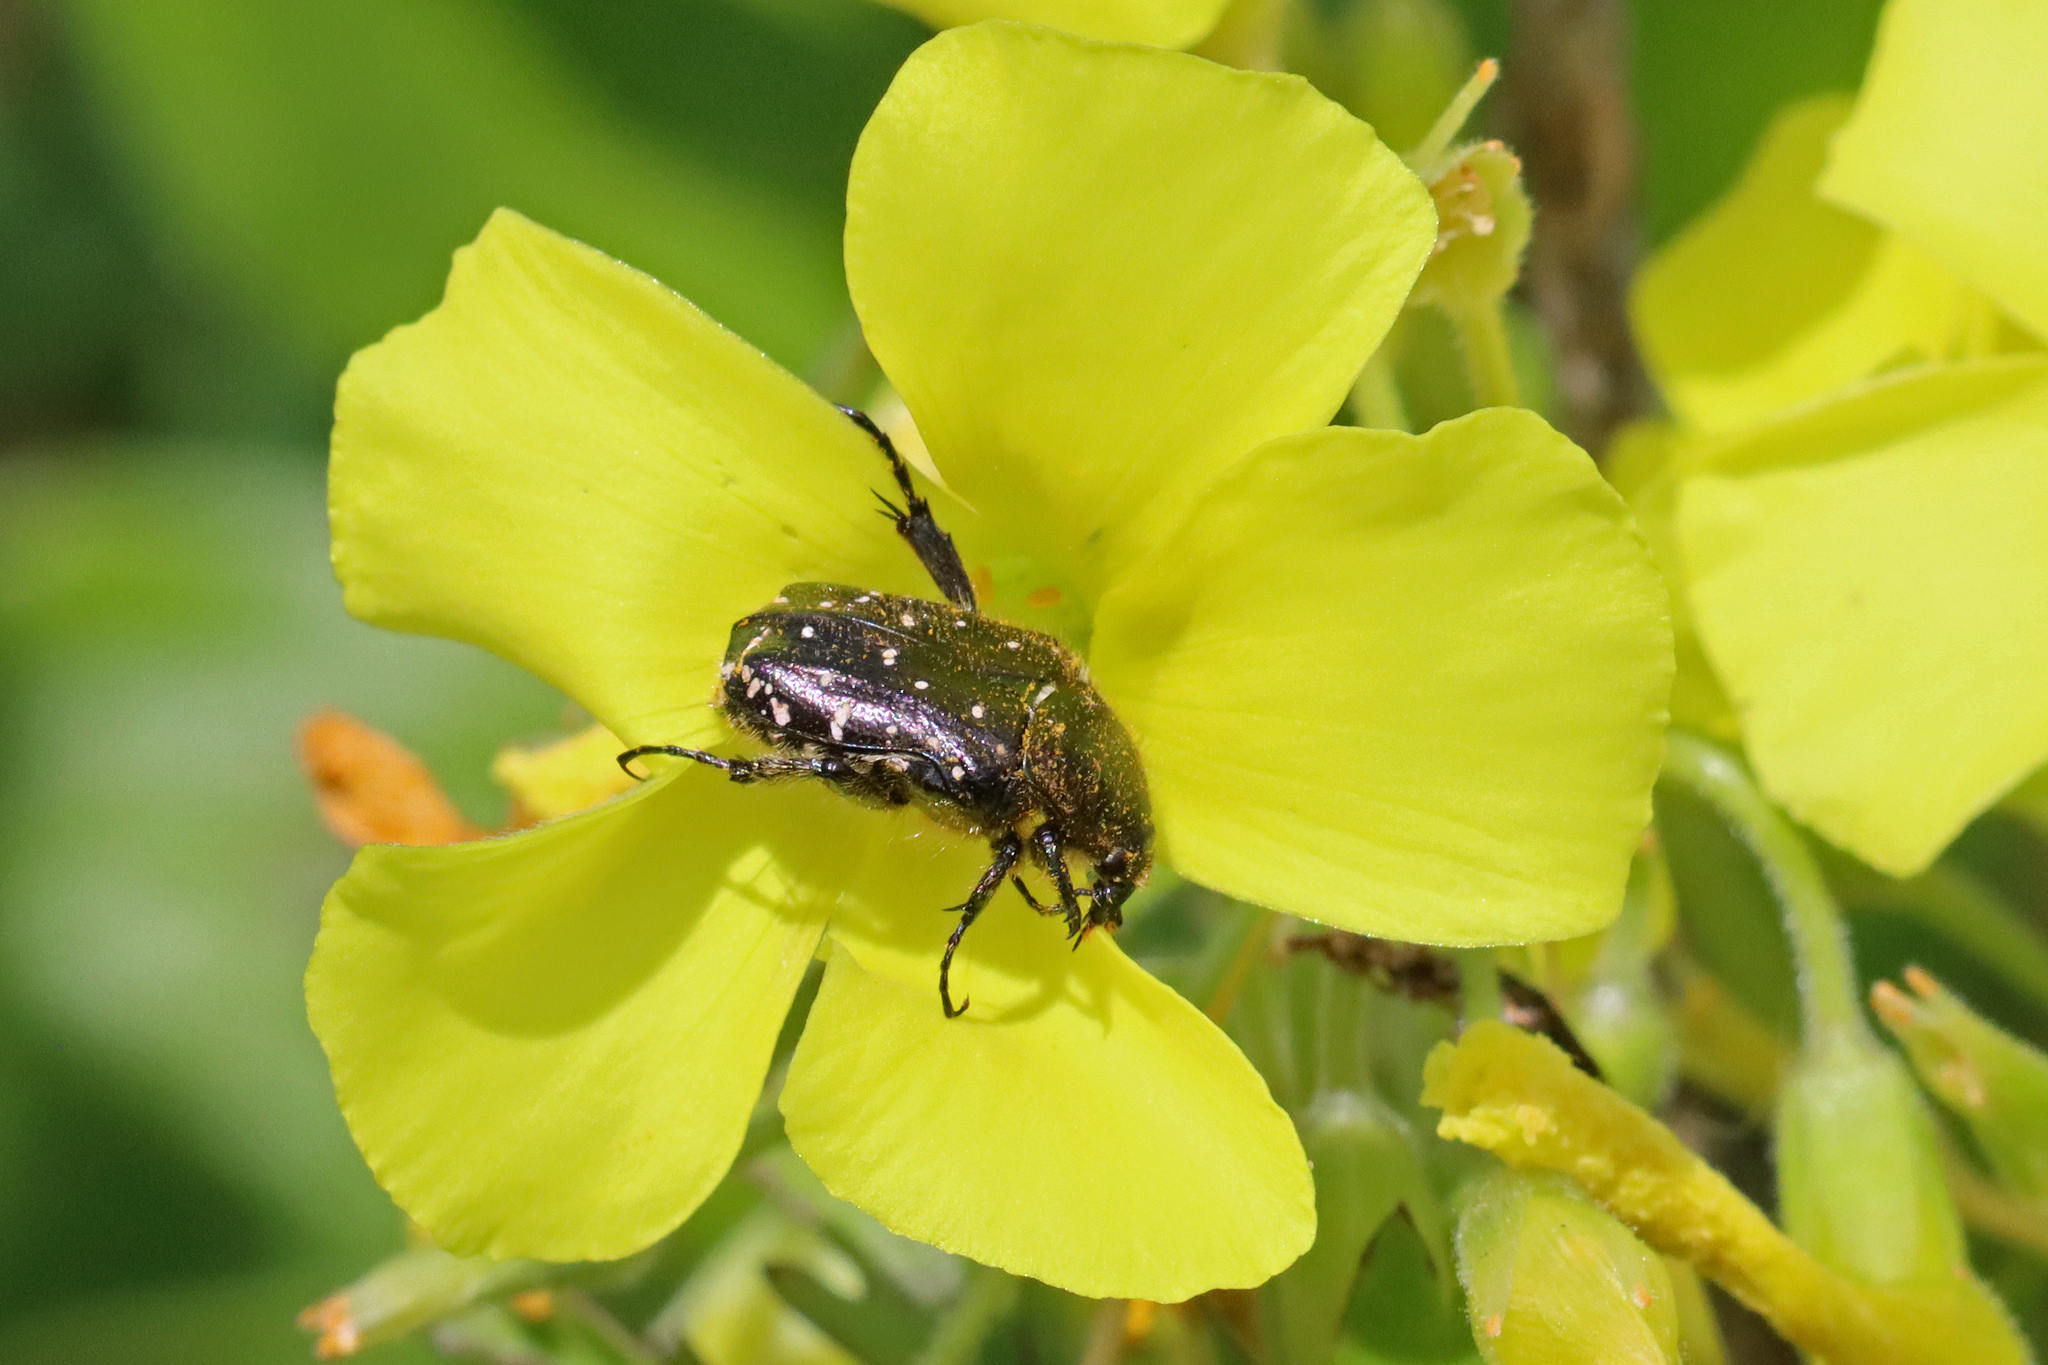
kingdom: Animalia
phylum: Arthropoda
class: Insecta
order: Coleoptera
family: Scarabaeidae
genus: Oxythyrea
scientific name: Oxythyrea funesta
